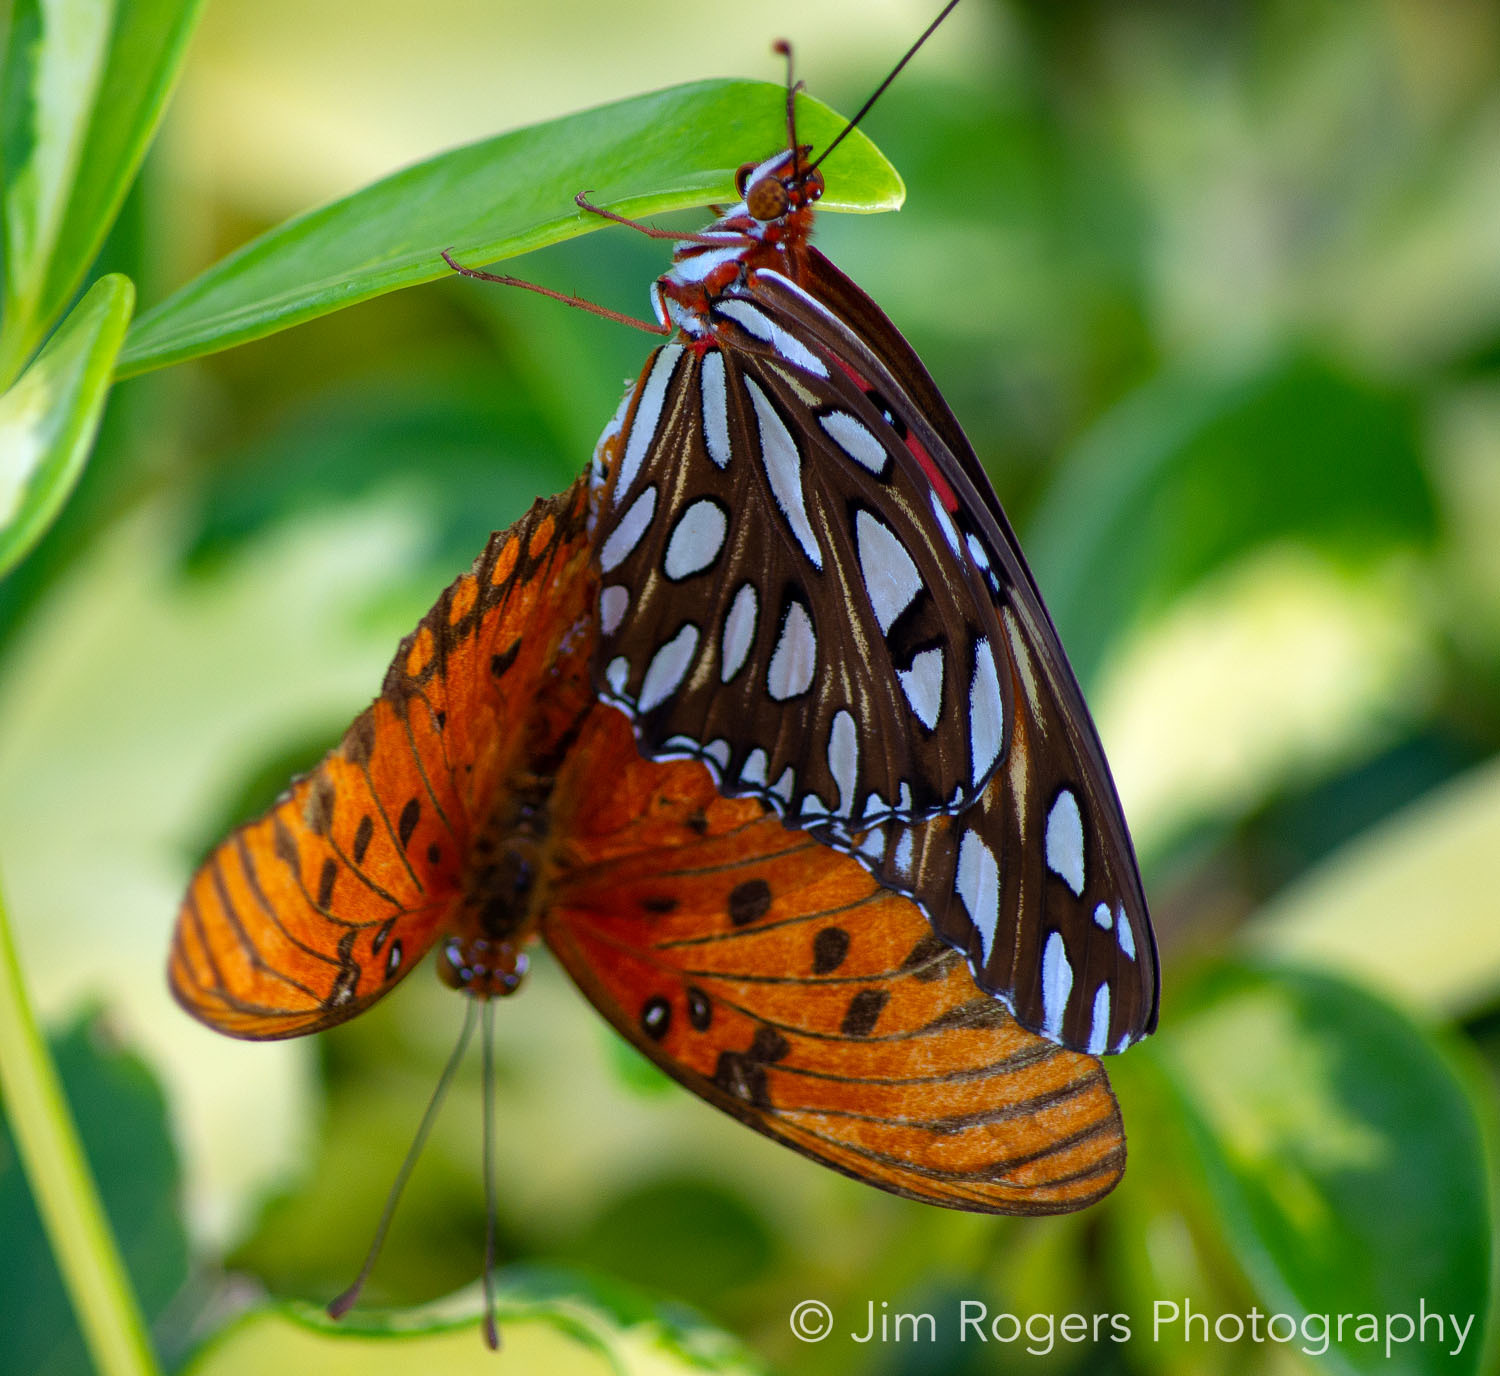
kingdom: Animalia
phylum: Arthropoda
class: Insecta
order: Lepidoptera
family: Nymphalidae
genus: Dione
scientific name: Dione vanillae
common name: Gulf fritillary
